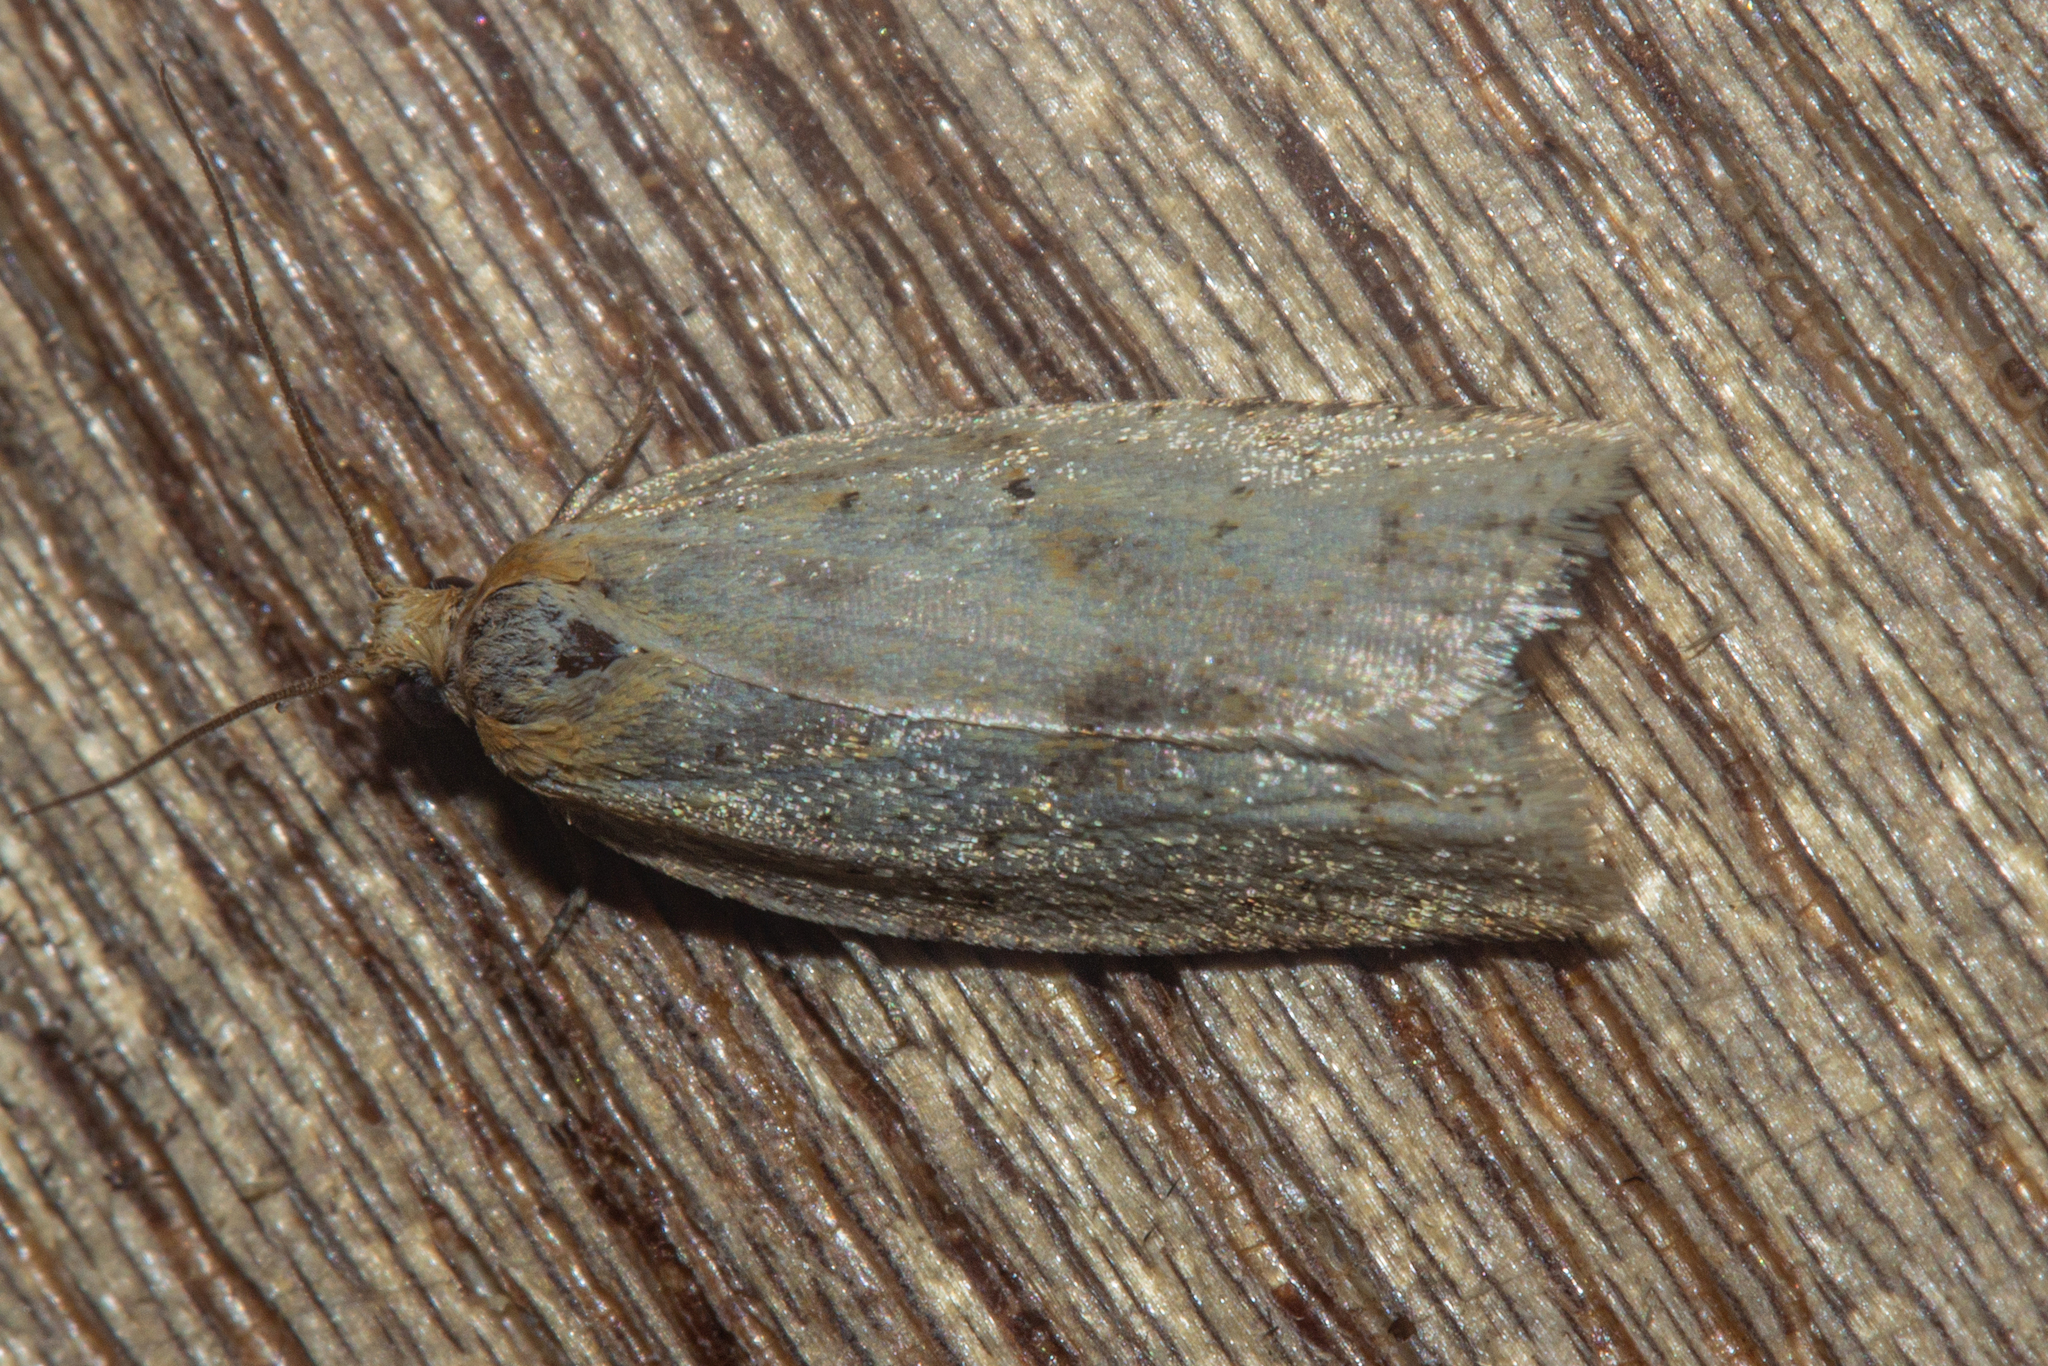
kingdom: Animalia
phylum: Arthropoda
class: Insecta
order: Lepidoptera
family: Tortricidae
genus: Clepsis
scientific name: Clepsis
